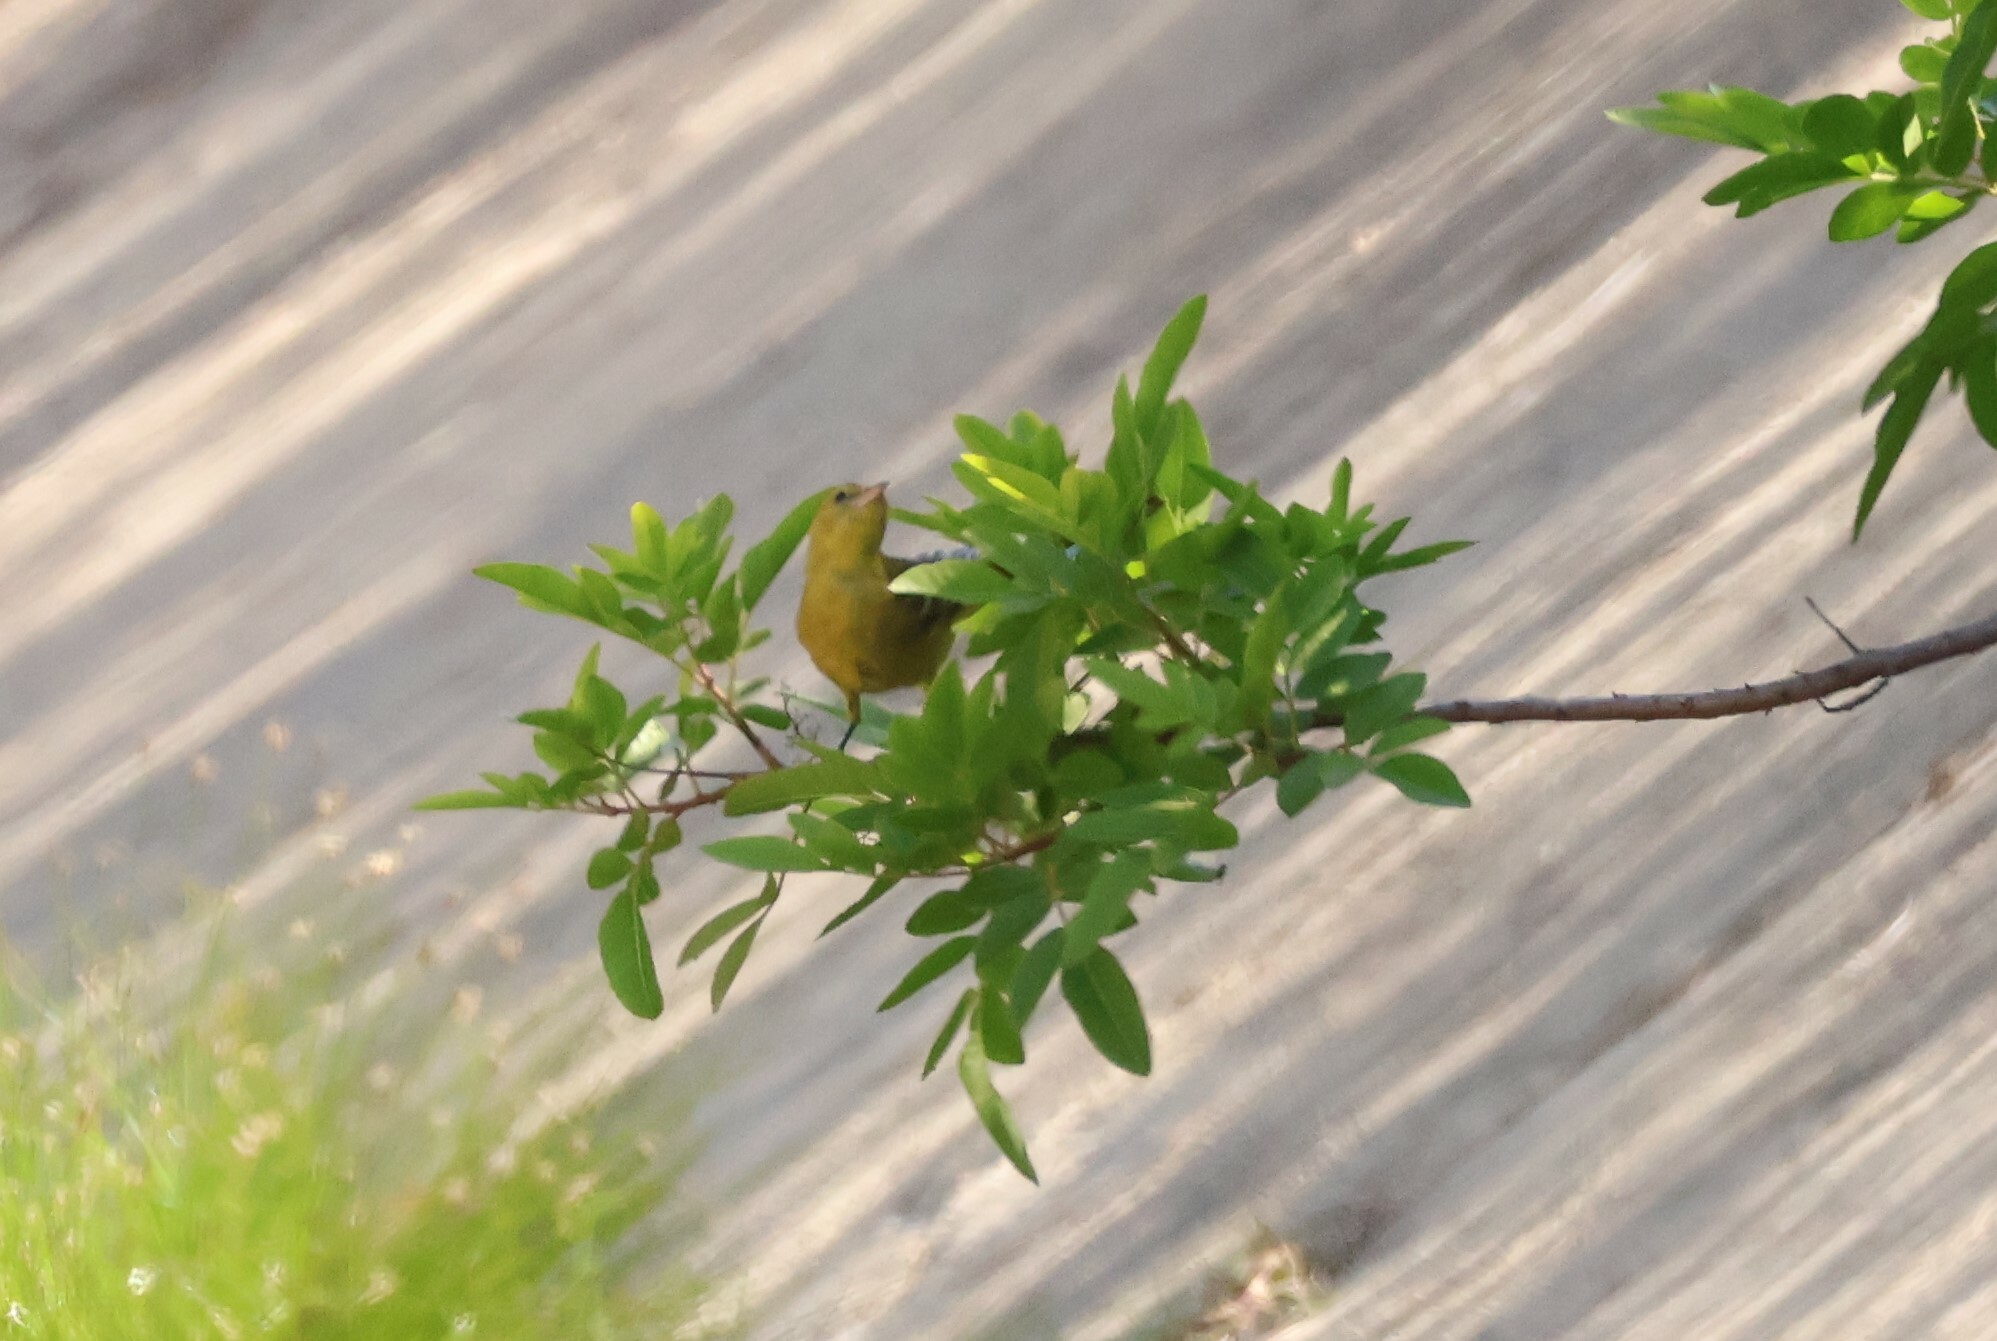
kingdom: Animalia
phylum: Chordata
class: Aves
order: Passeriformes
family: Icteridae
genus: Icterus
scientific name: Icterus cucullatus
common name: Hooded oriole
